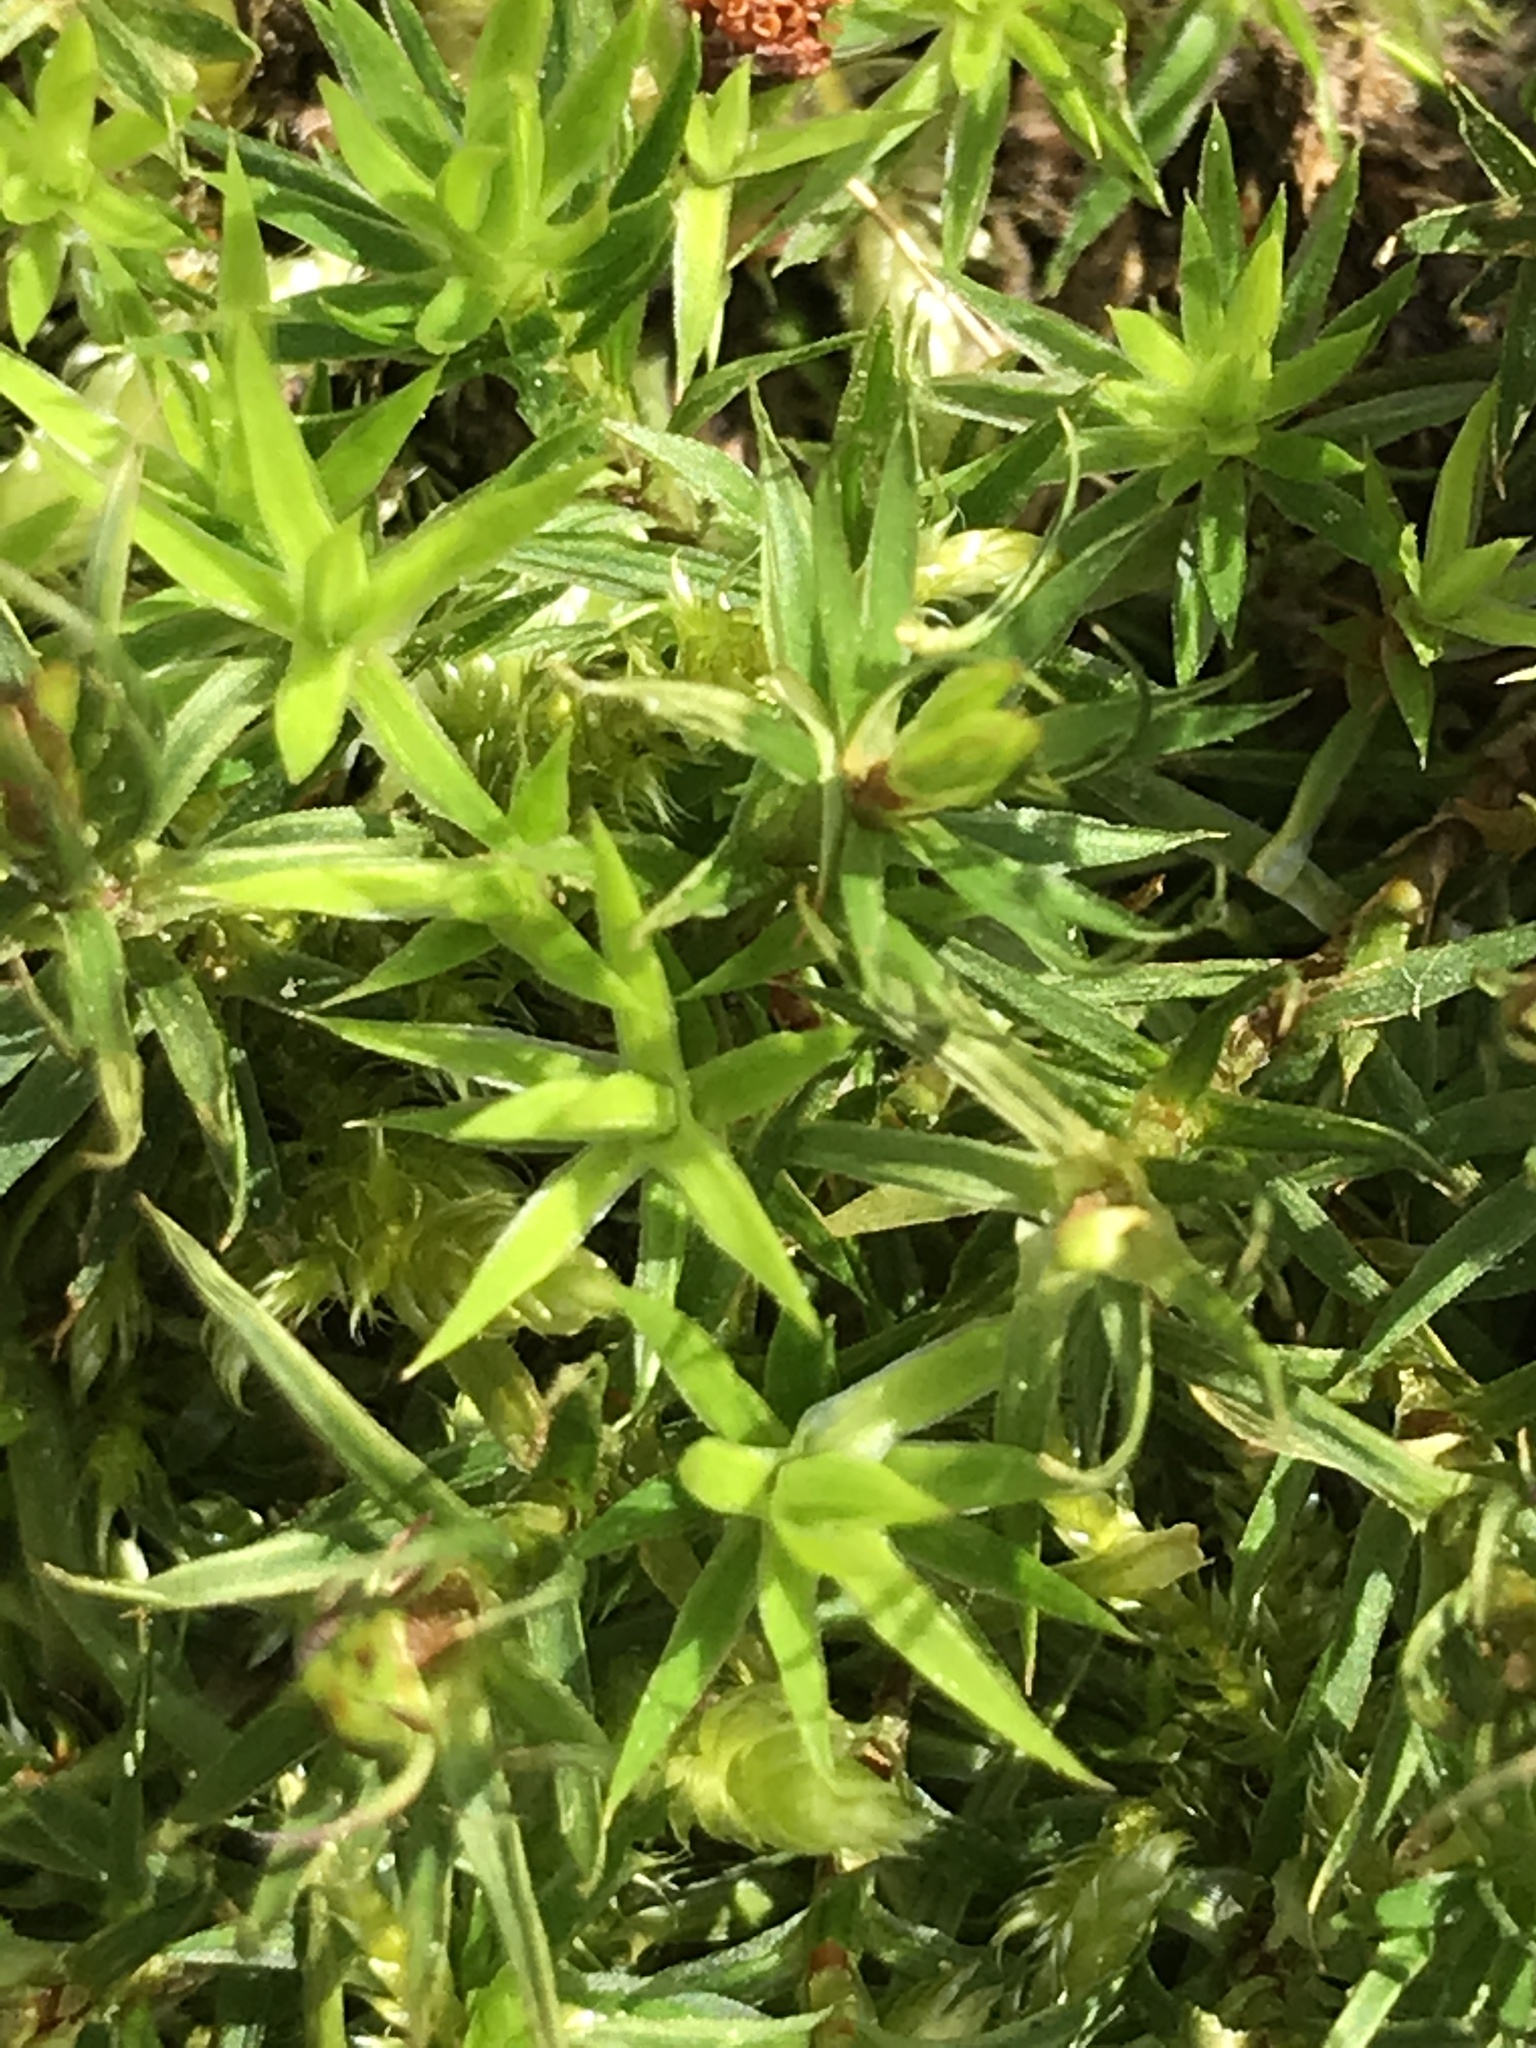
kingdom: Plantae
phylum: Bryophyta
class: Polytrichopsida
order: Polytrichales
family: Polytrichaceae
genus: Polytrichum
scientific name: Polytrichum formosum
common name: Bank haircap moss
